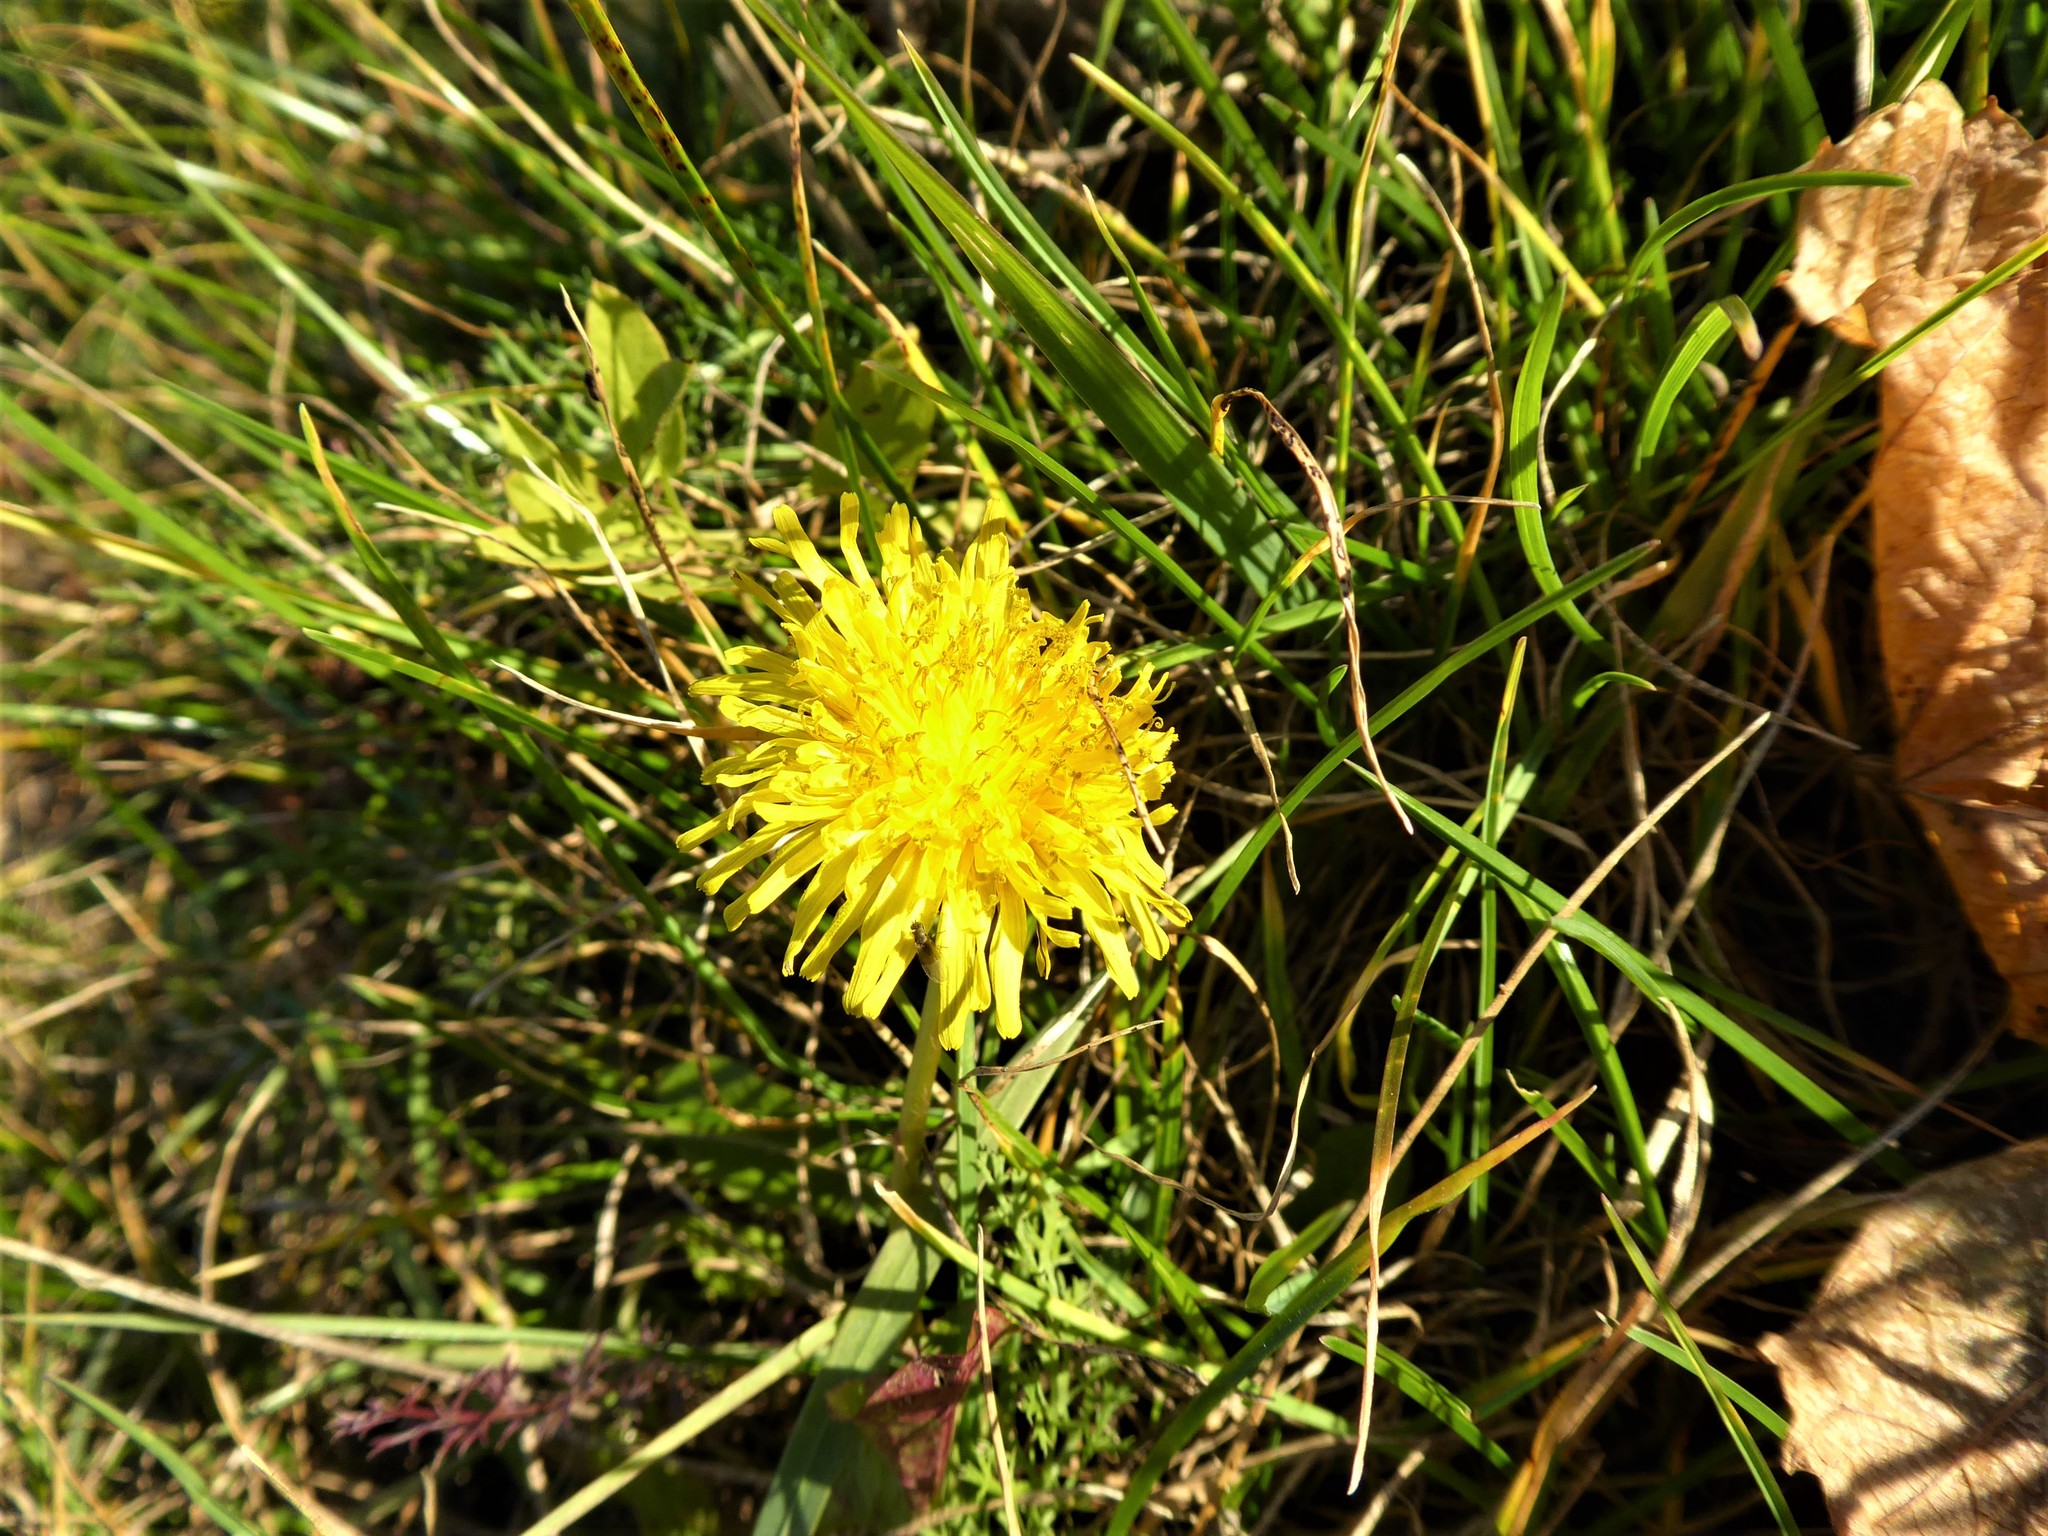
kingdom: Plantae
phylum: Tracheophyta
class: Magnoliopsida
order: Asterales
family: Asteraceae
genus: Taraxacum
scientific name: Taraxacum officinale
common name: Common dandelion
